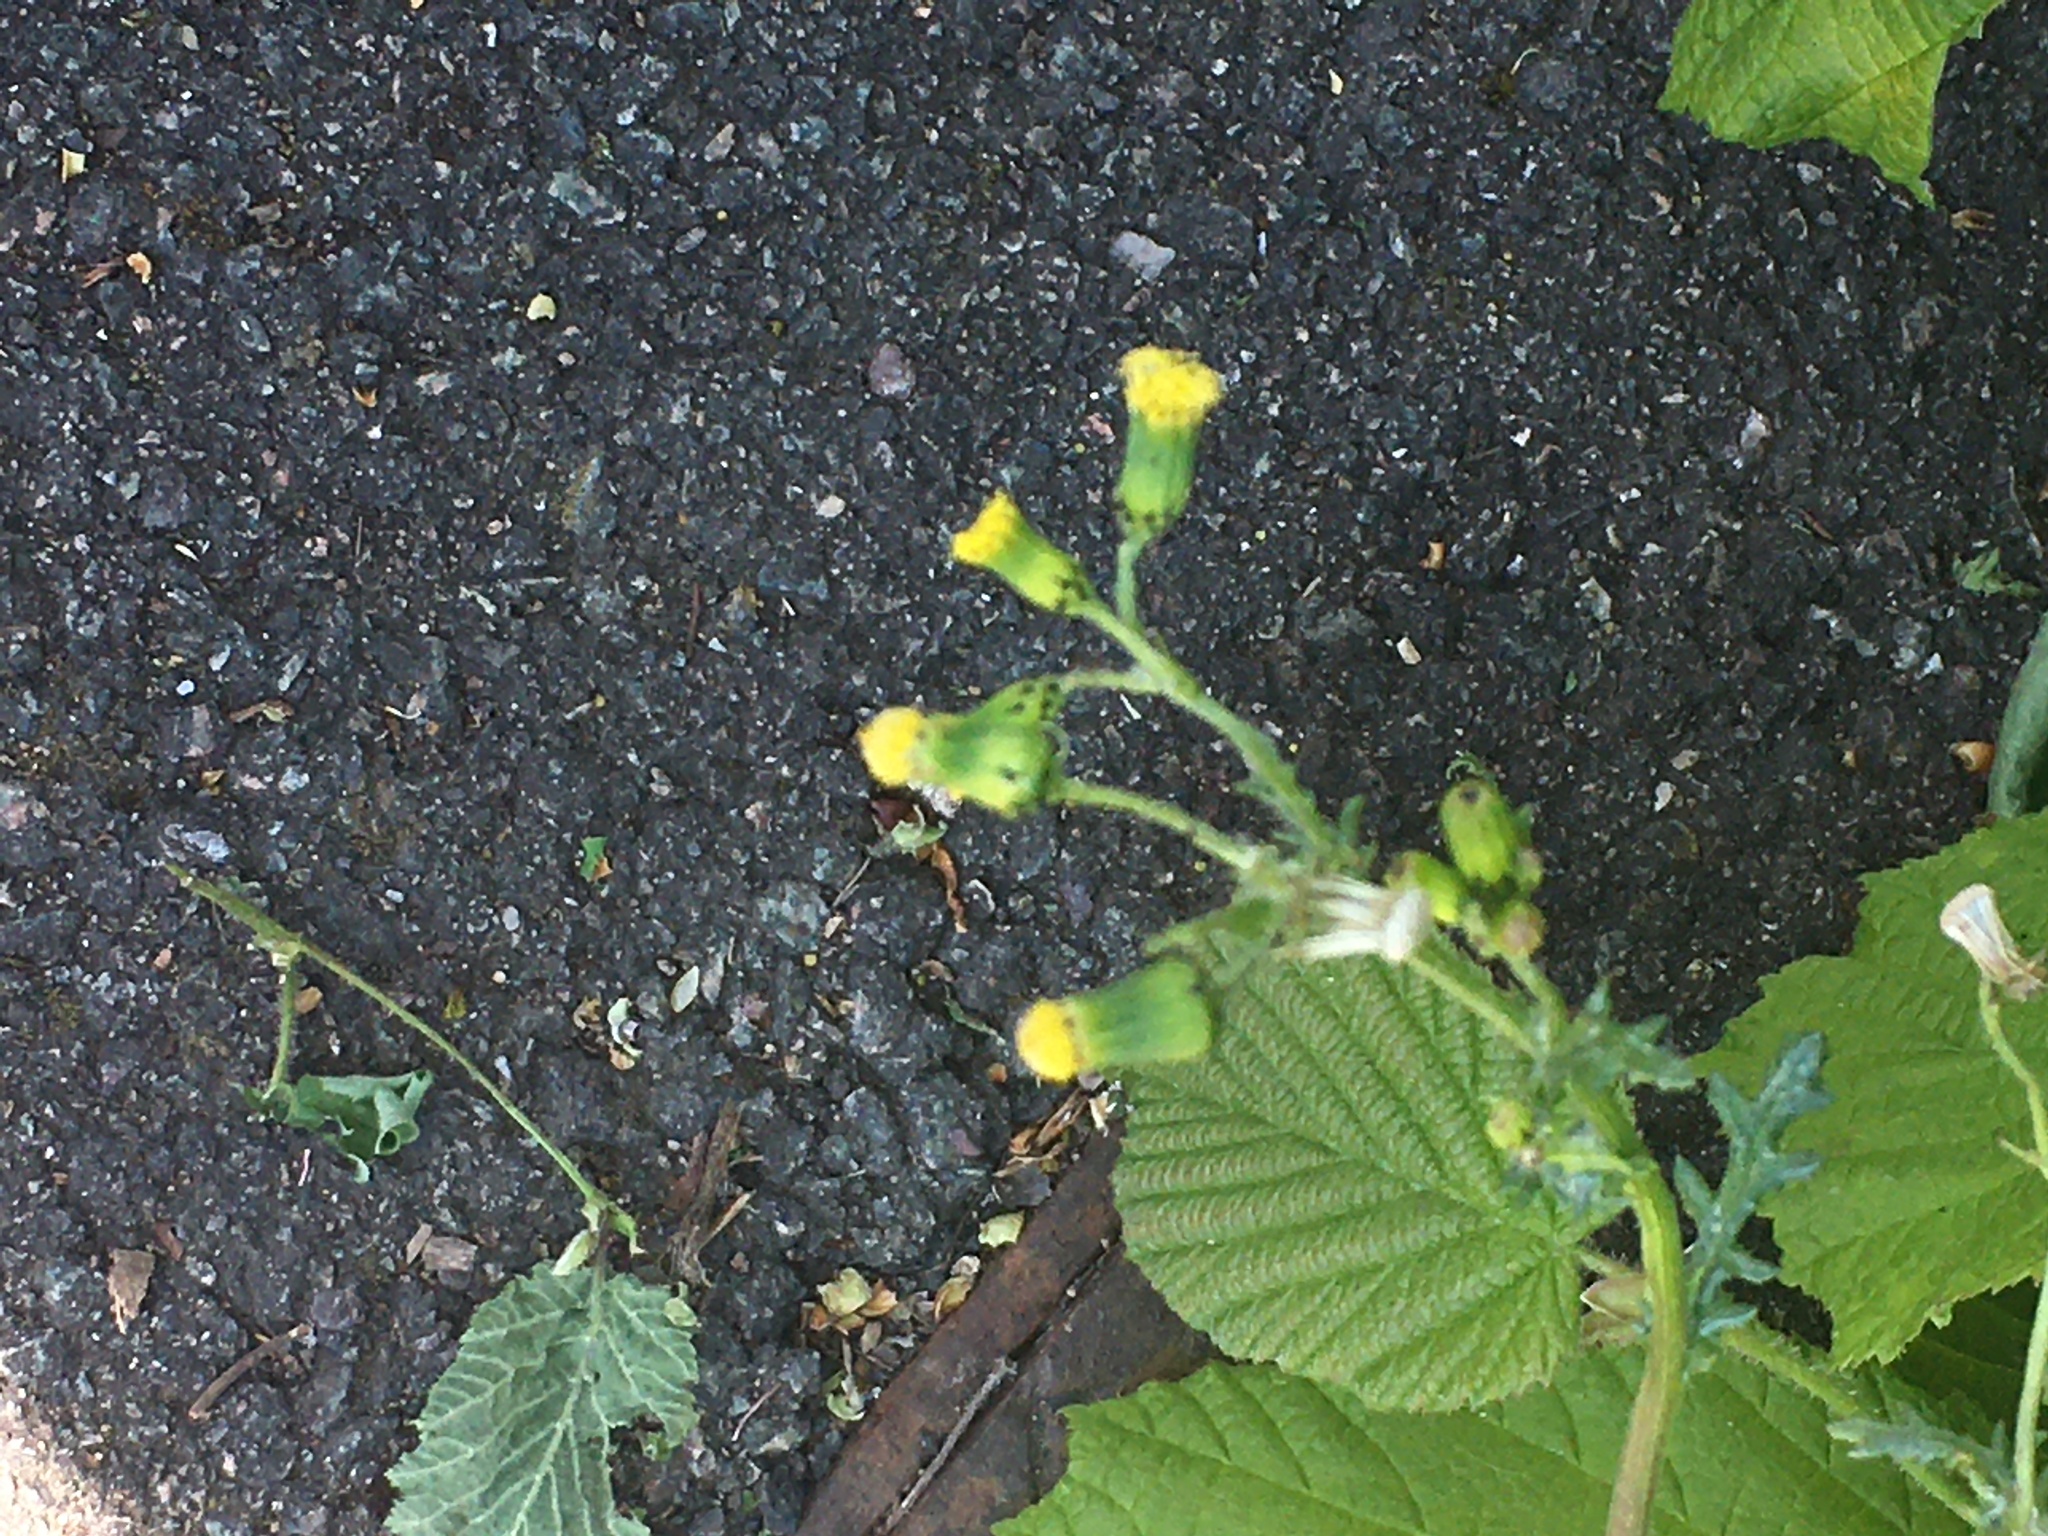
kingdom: Plantae
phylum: Tracheophyta
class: Magnoliopsida
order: Asterales
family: Asteraceae
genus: Senecio
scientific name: Senecio vulgaris
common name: Old-man-in-the-spring
